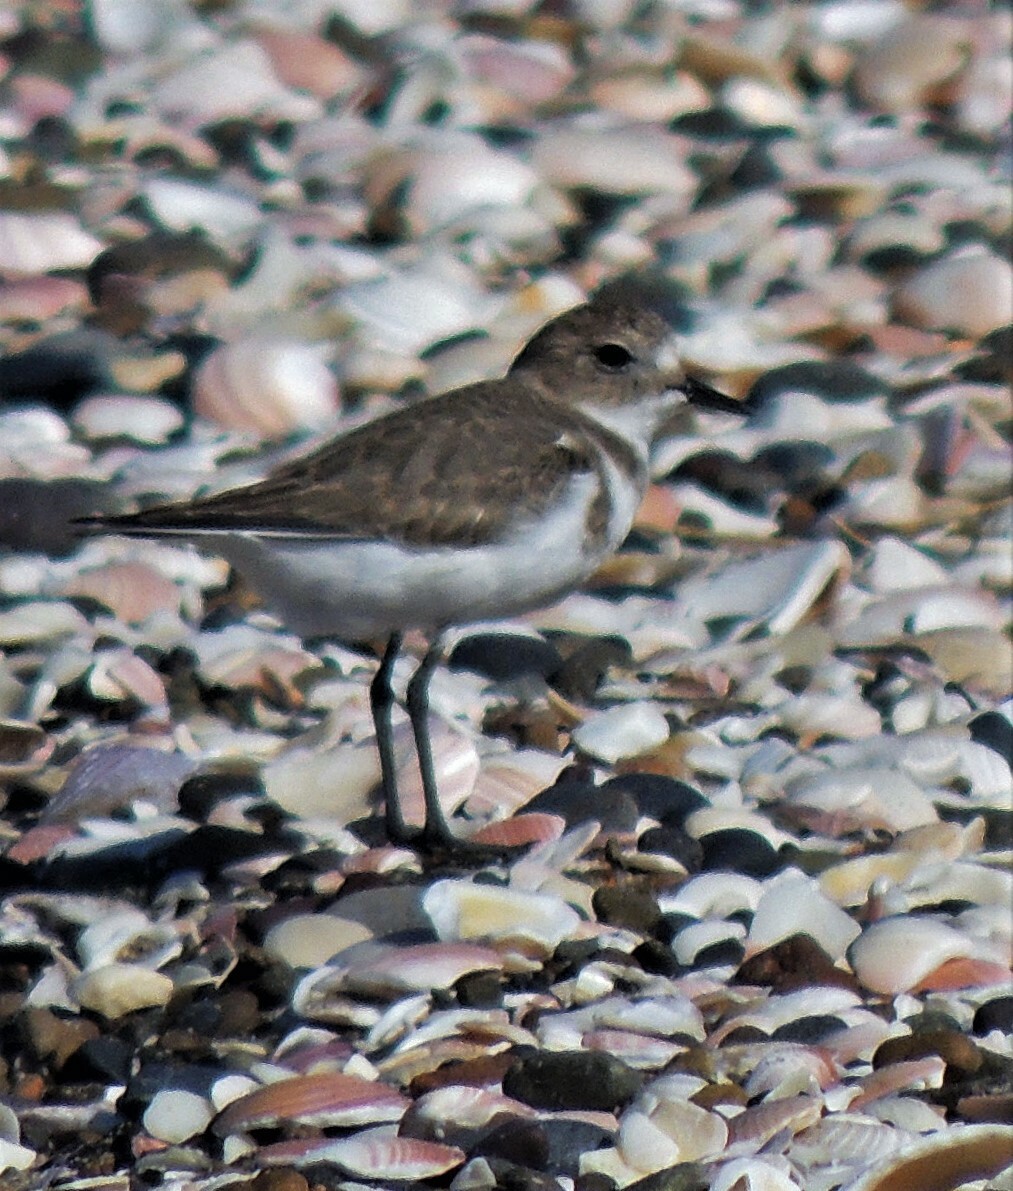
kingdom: Animalia
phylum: Chordata
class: Aves
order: Charadriiformes
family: Charadriidae
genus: Anarhynchus
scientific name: Anarhynchus
